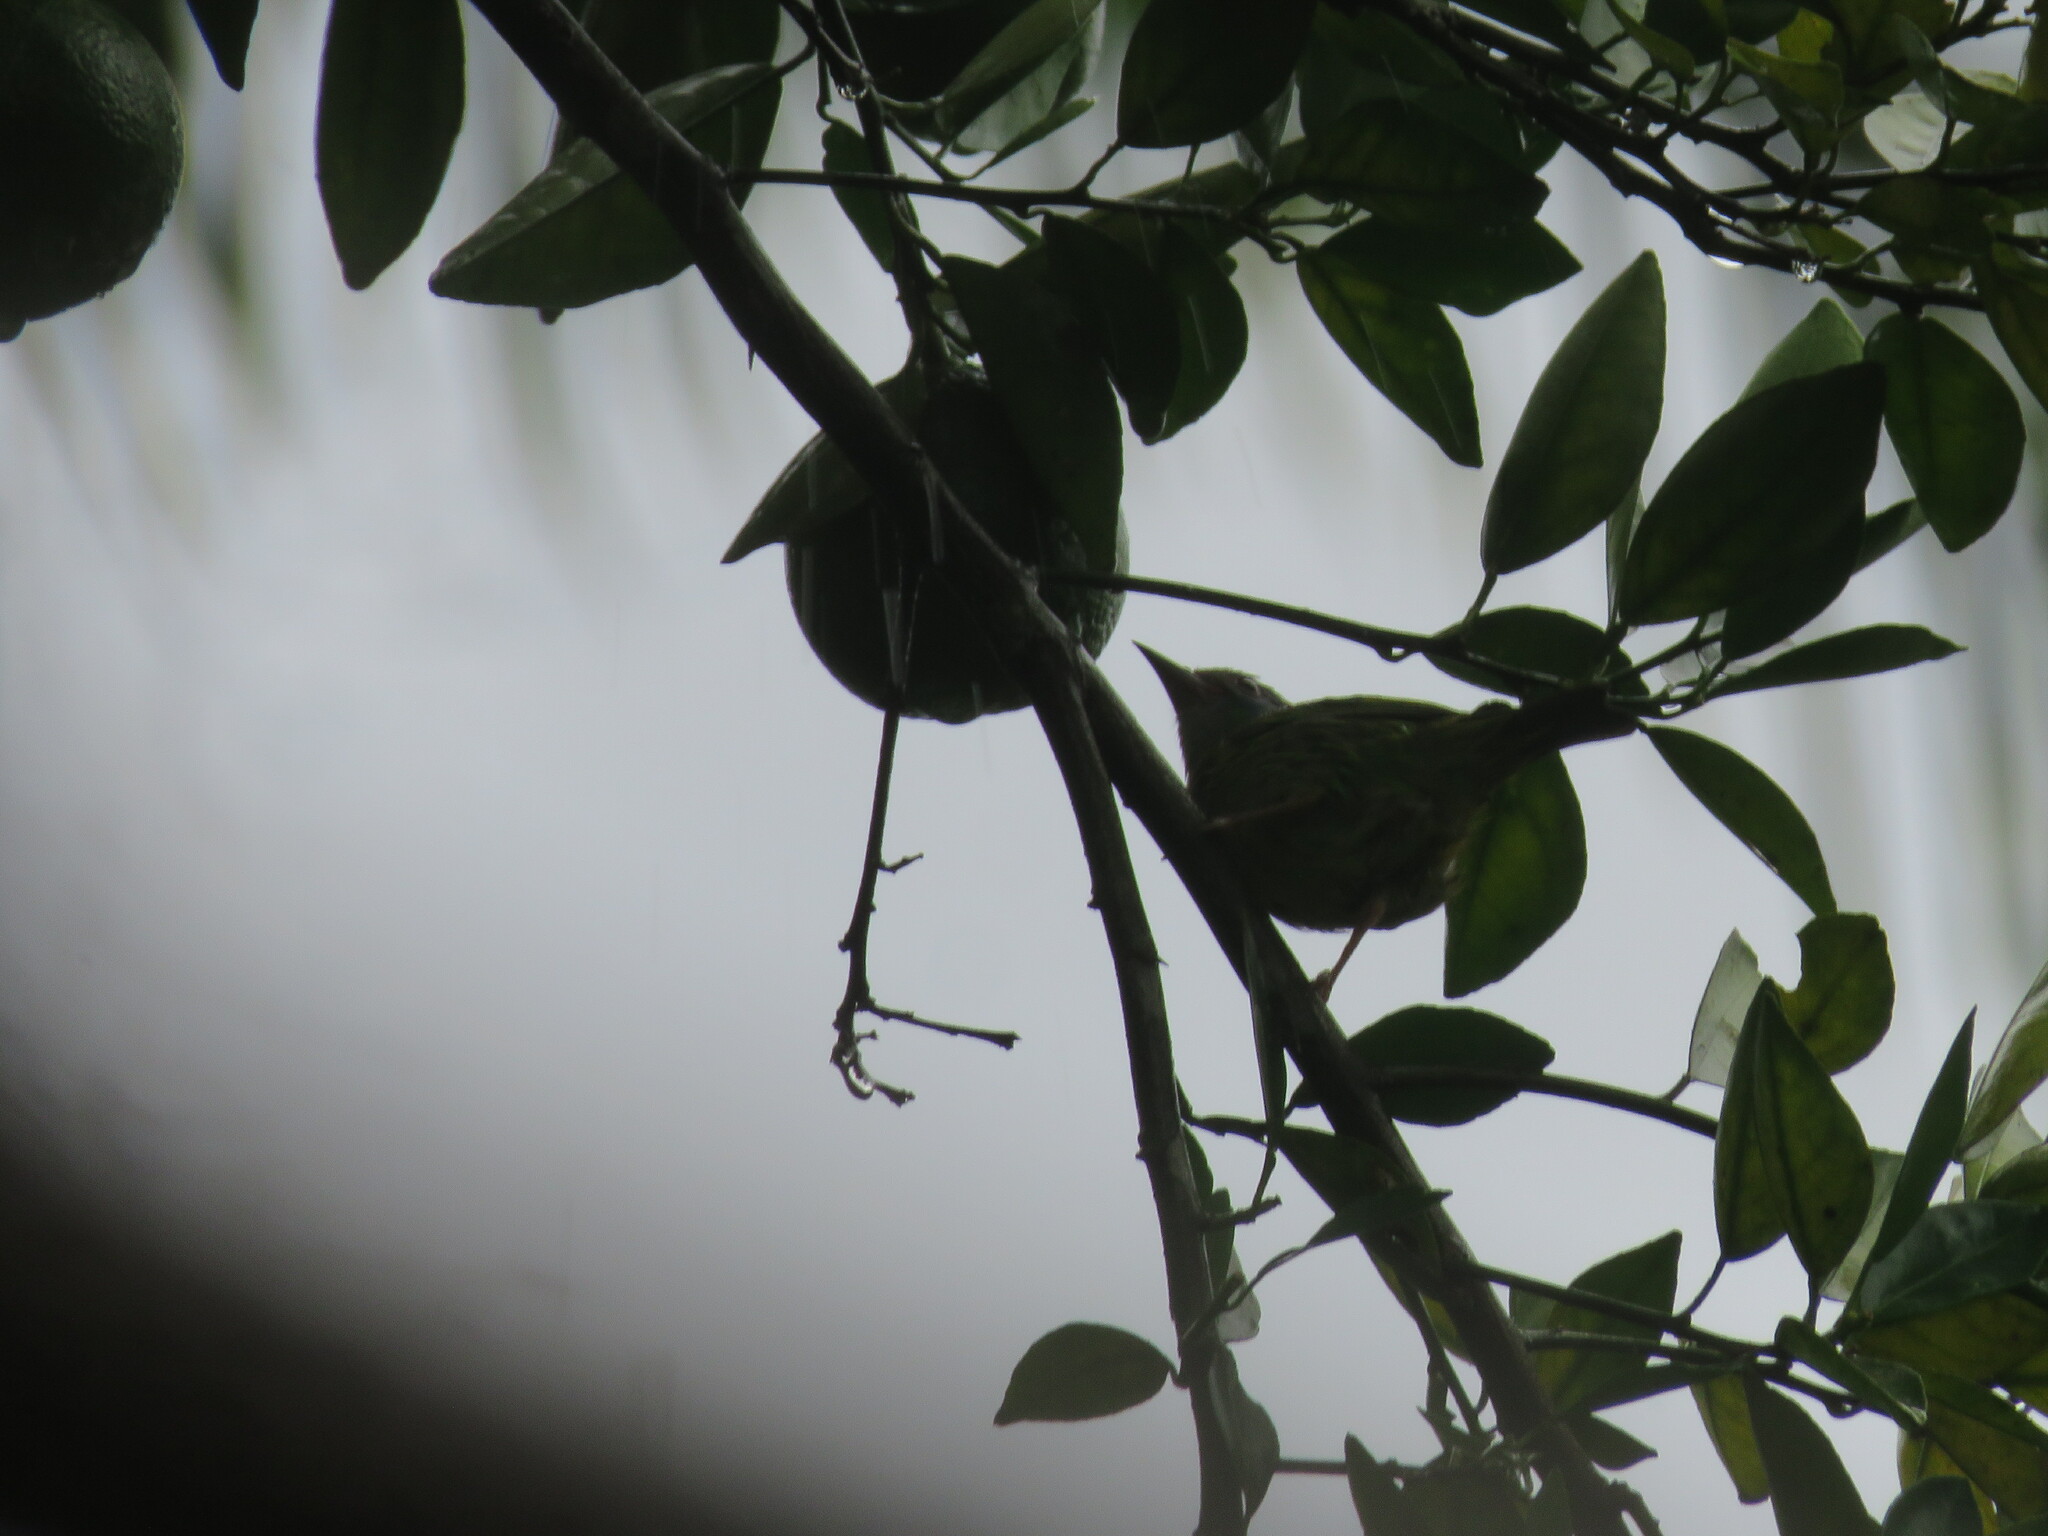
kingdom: Animalia
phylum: Chordata
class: Aves
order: Passeriformes
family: Thraupidae
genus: Dacnis
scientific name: Dacnis cayana
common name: Blue dacnis
